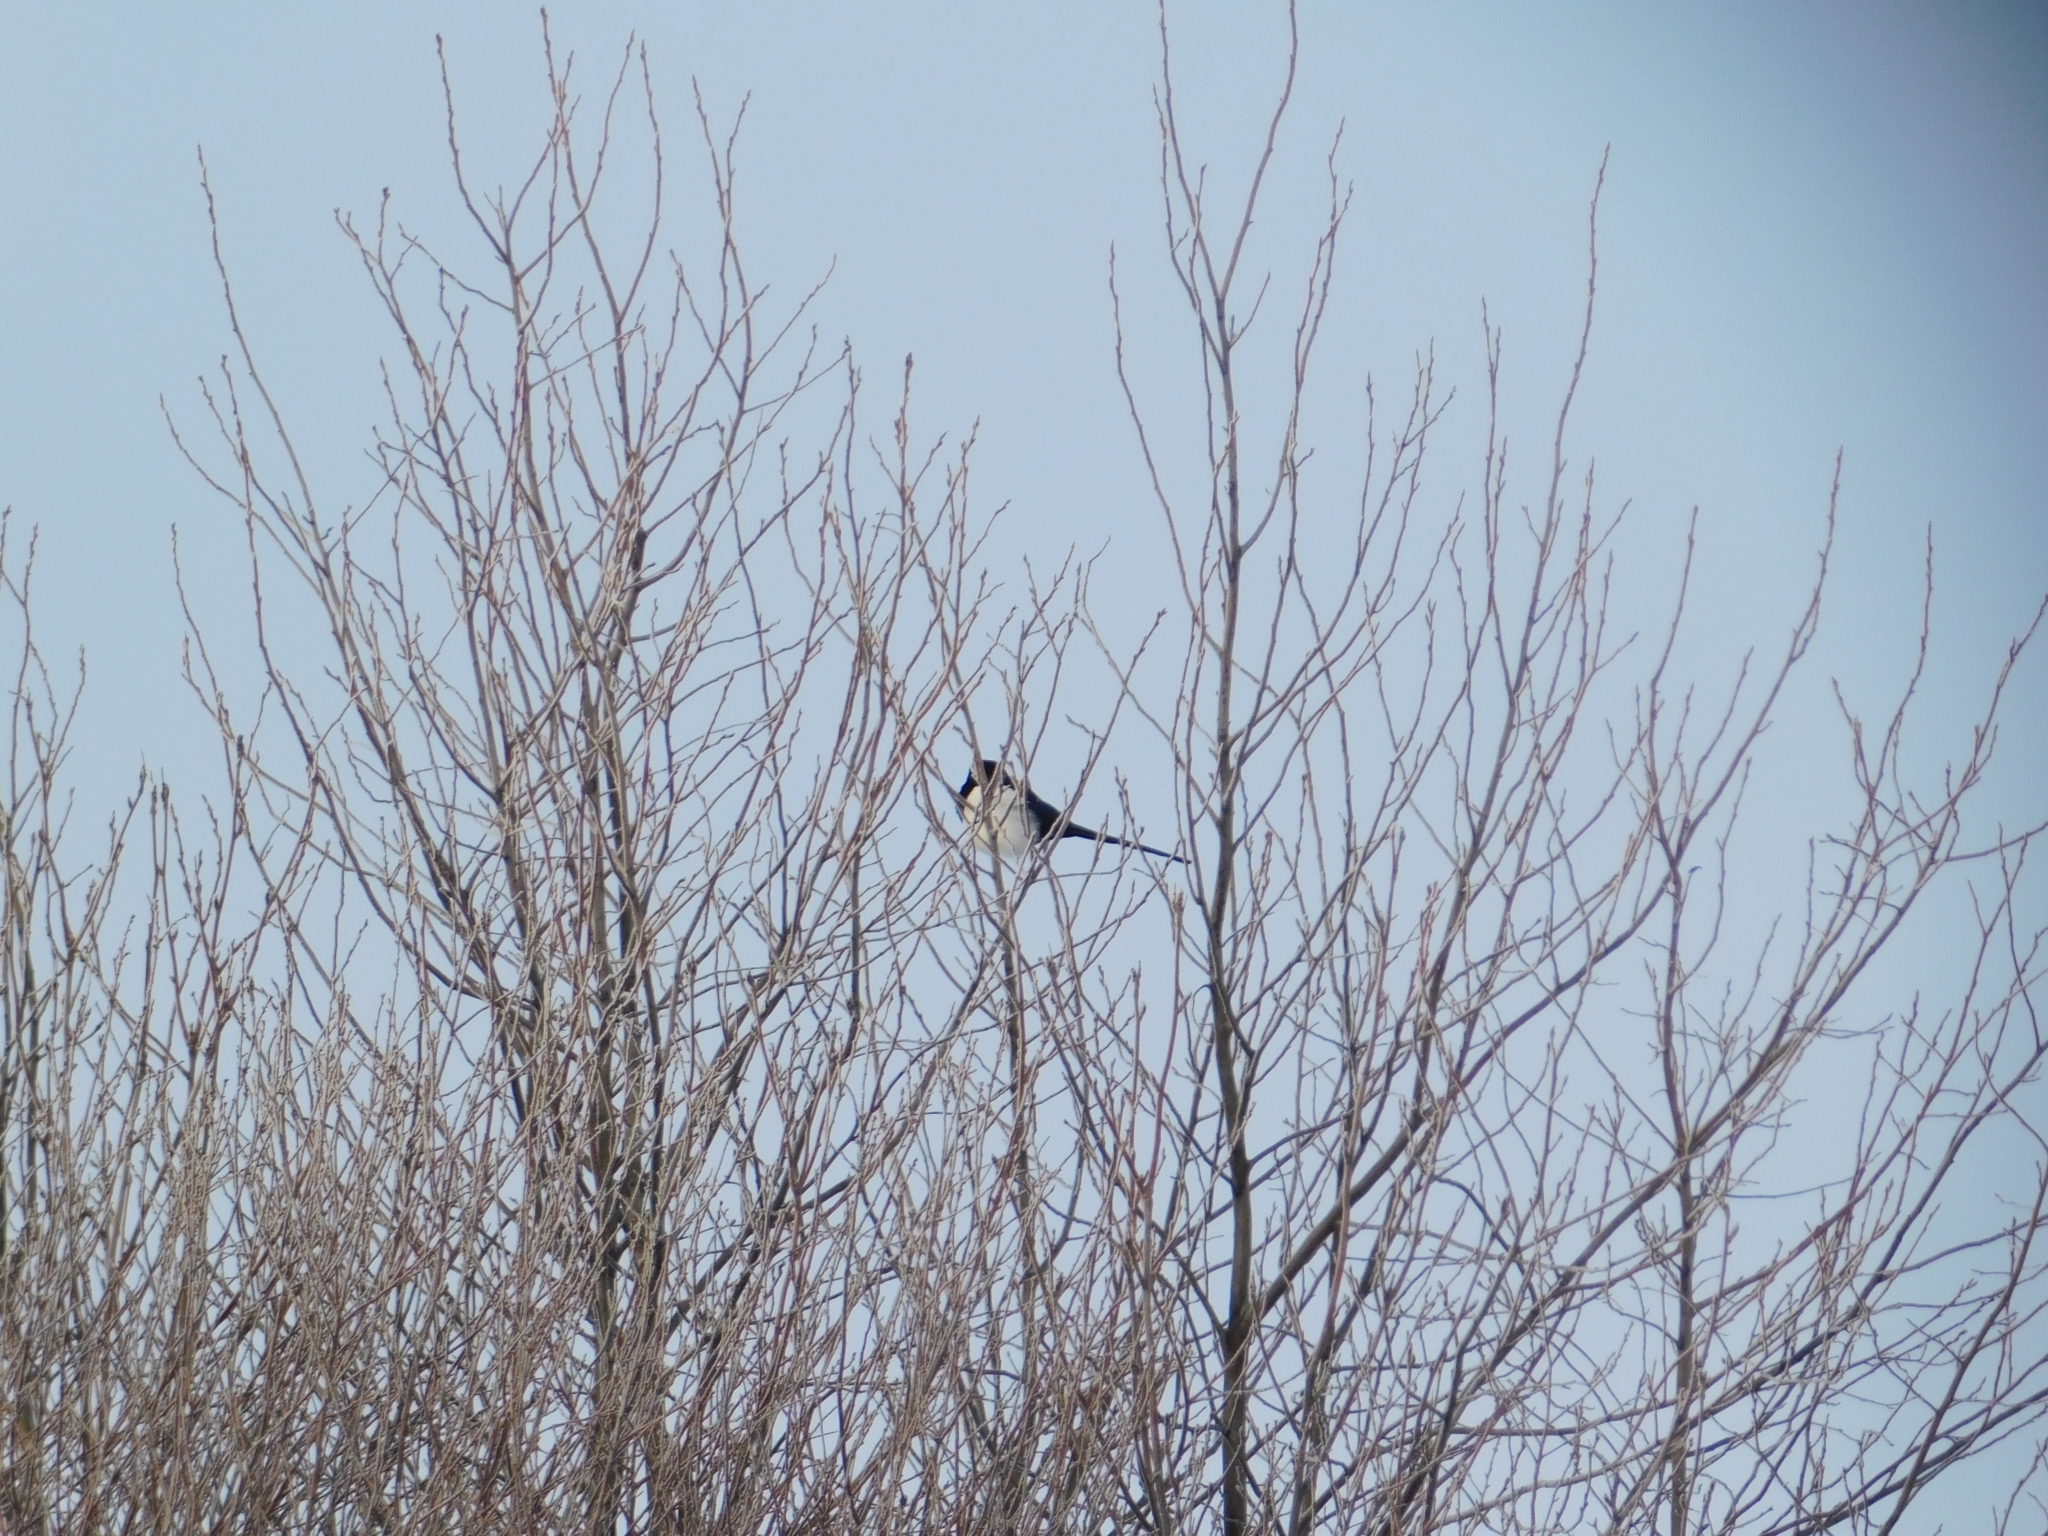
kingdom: Animalia
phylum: Chordata
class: Aves
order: Passeriformes
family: Corvidae
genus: Pica
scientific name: Pica pica
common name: Eurasian magpie
